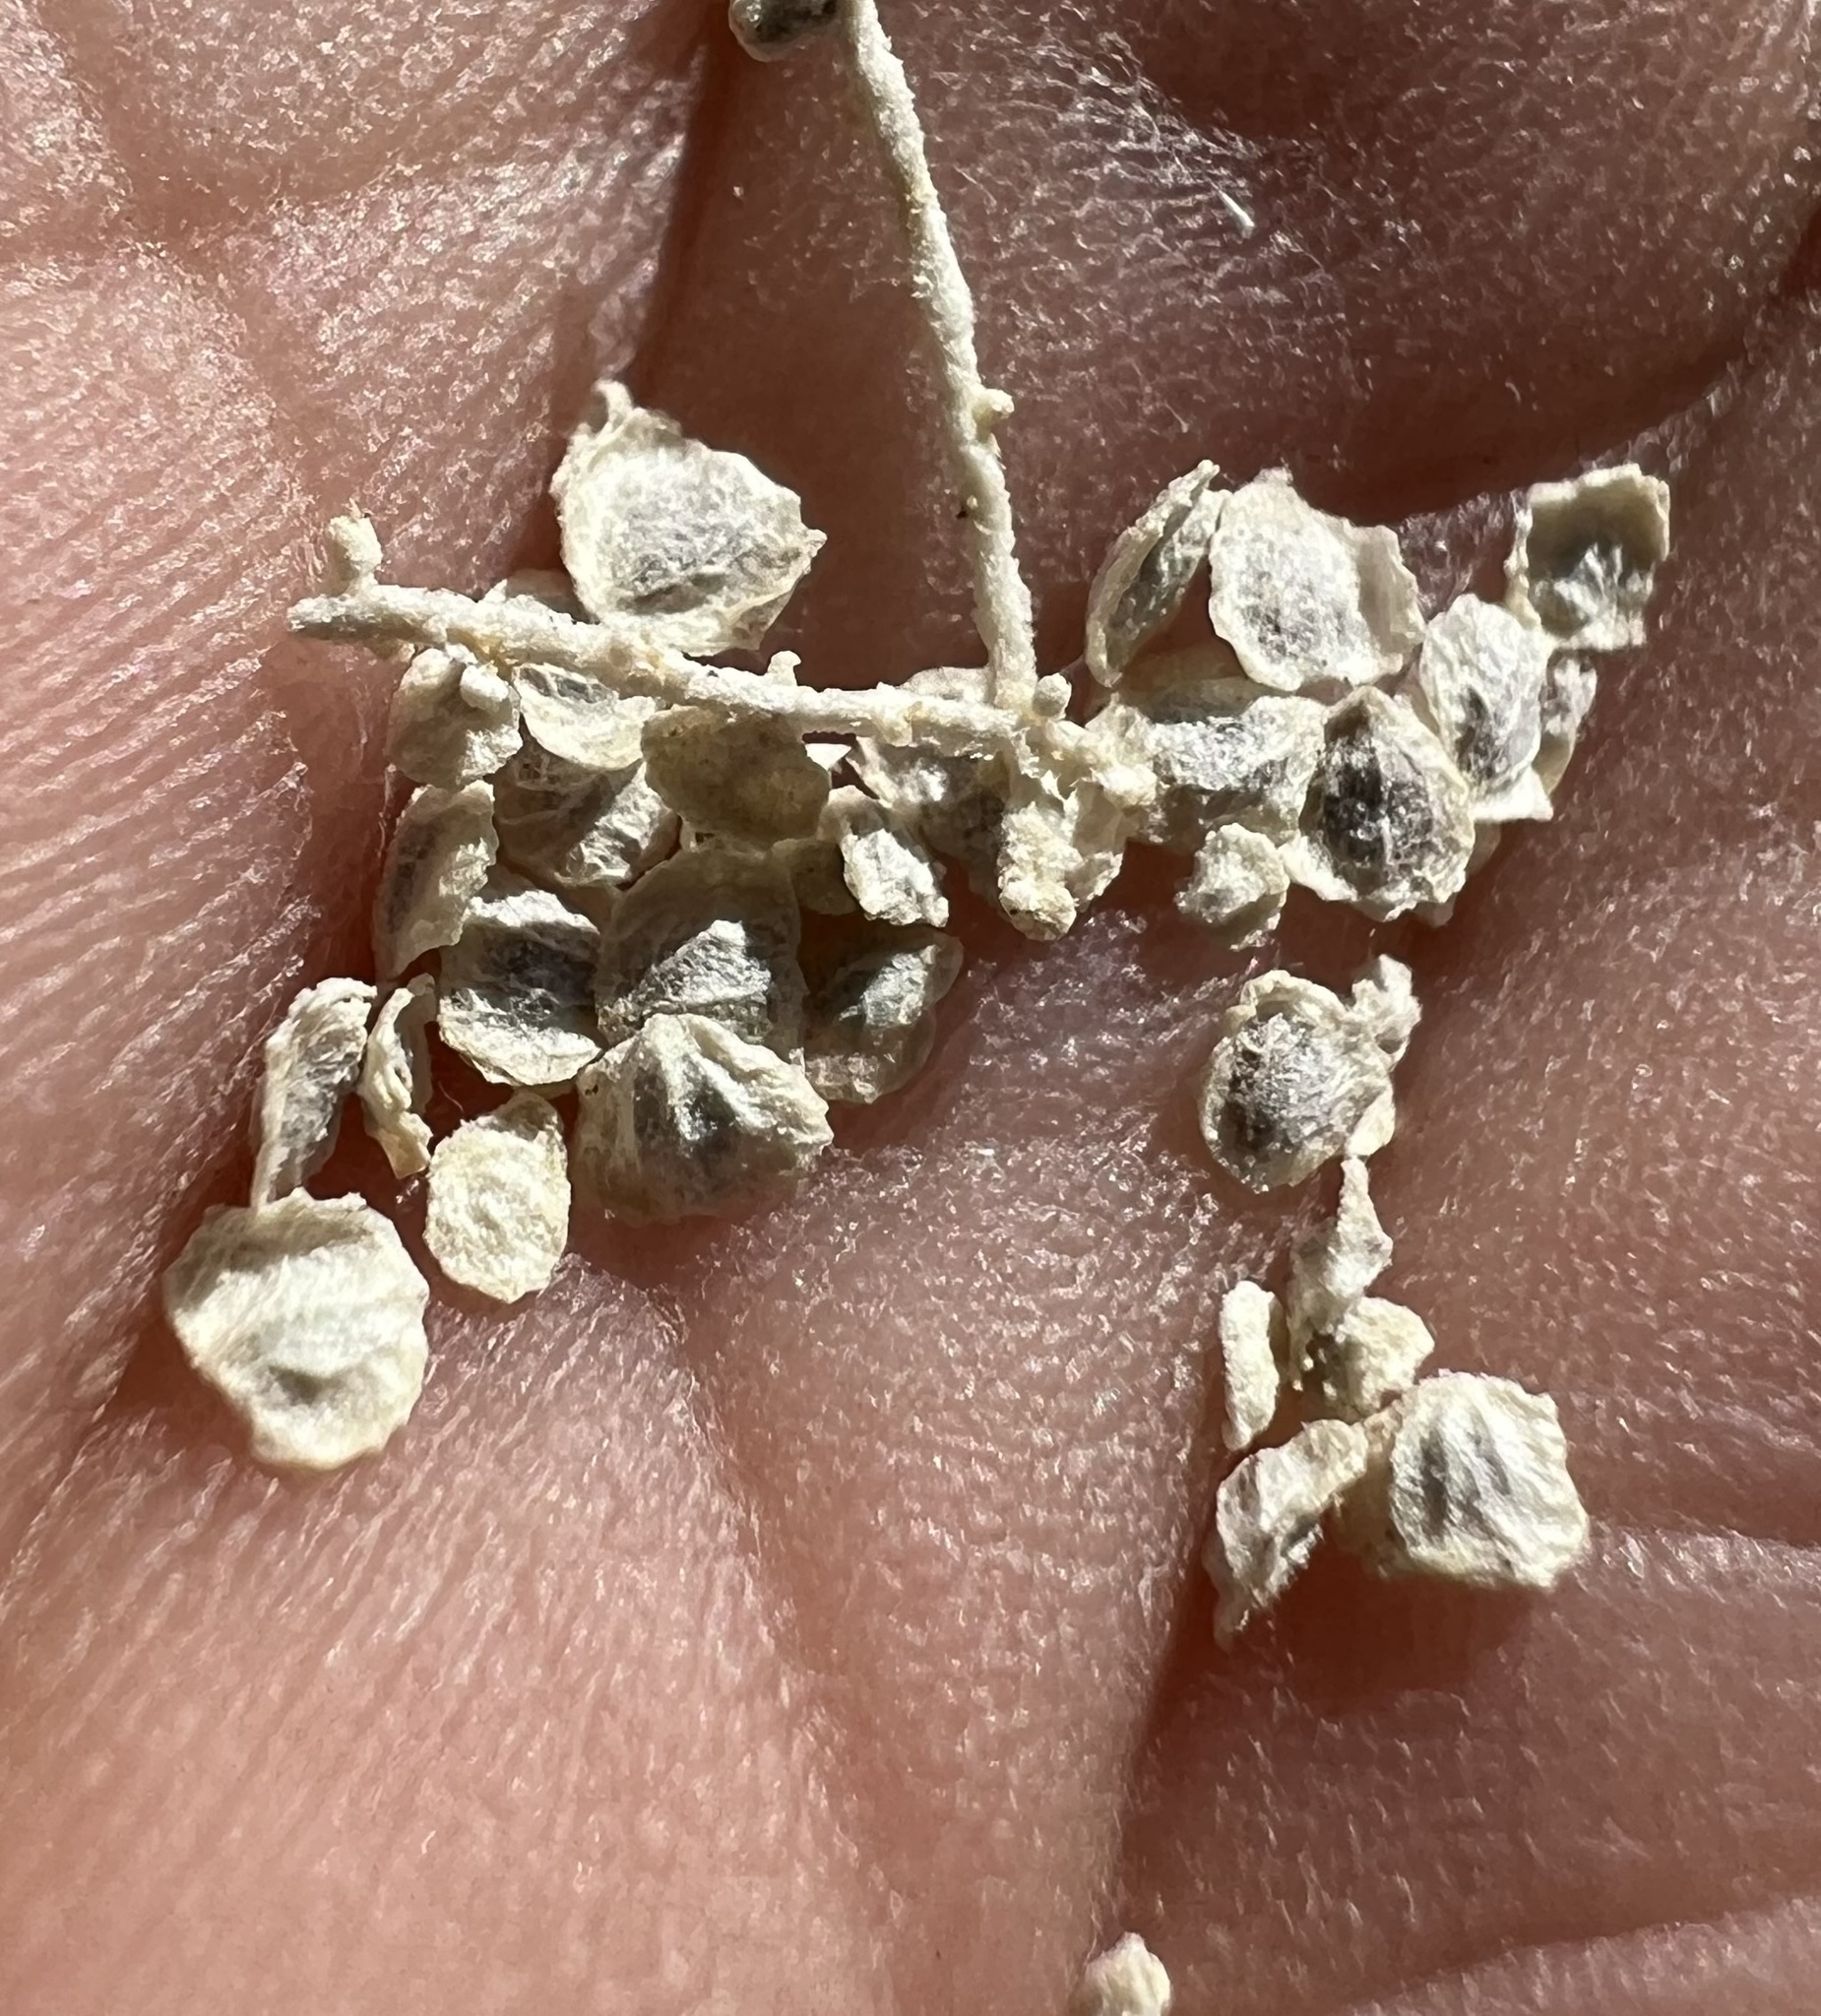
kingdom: Plantae
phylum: Tracheophyta
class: Magnoliopsida
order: Caryophyllales
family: Amaranthaceae
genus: Atriplex
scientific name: Atriplex torreyi
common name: Torrey's saltbush
